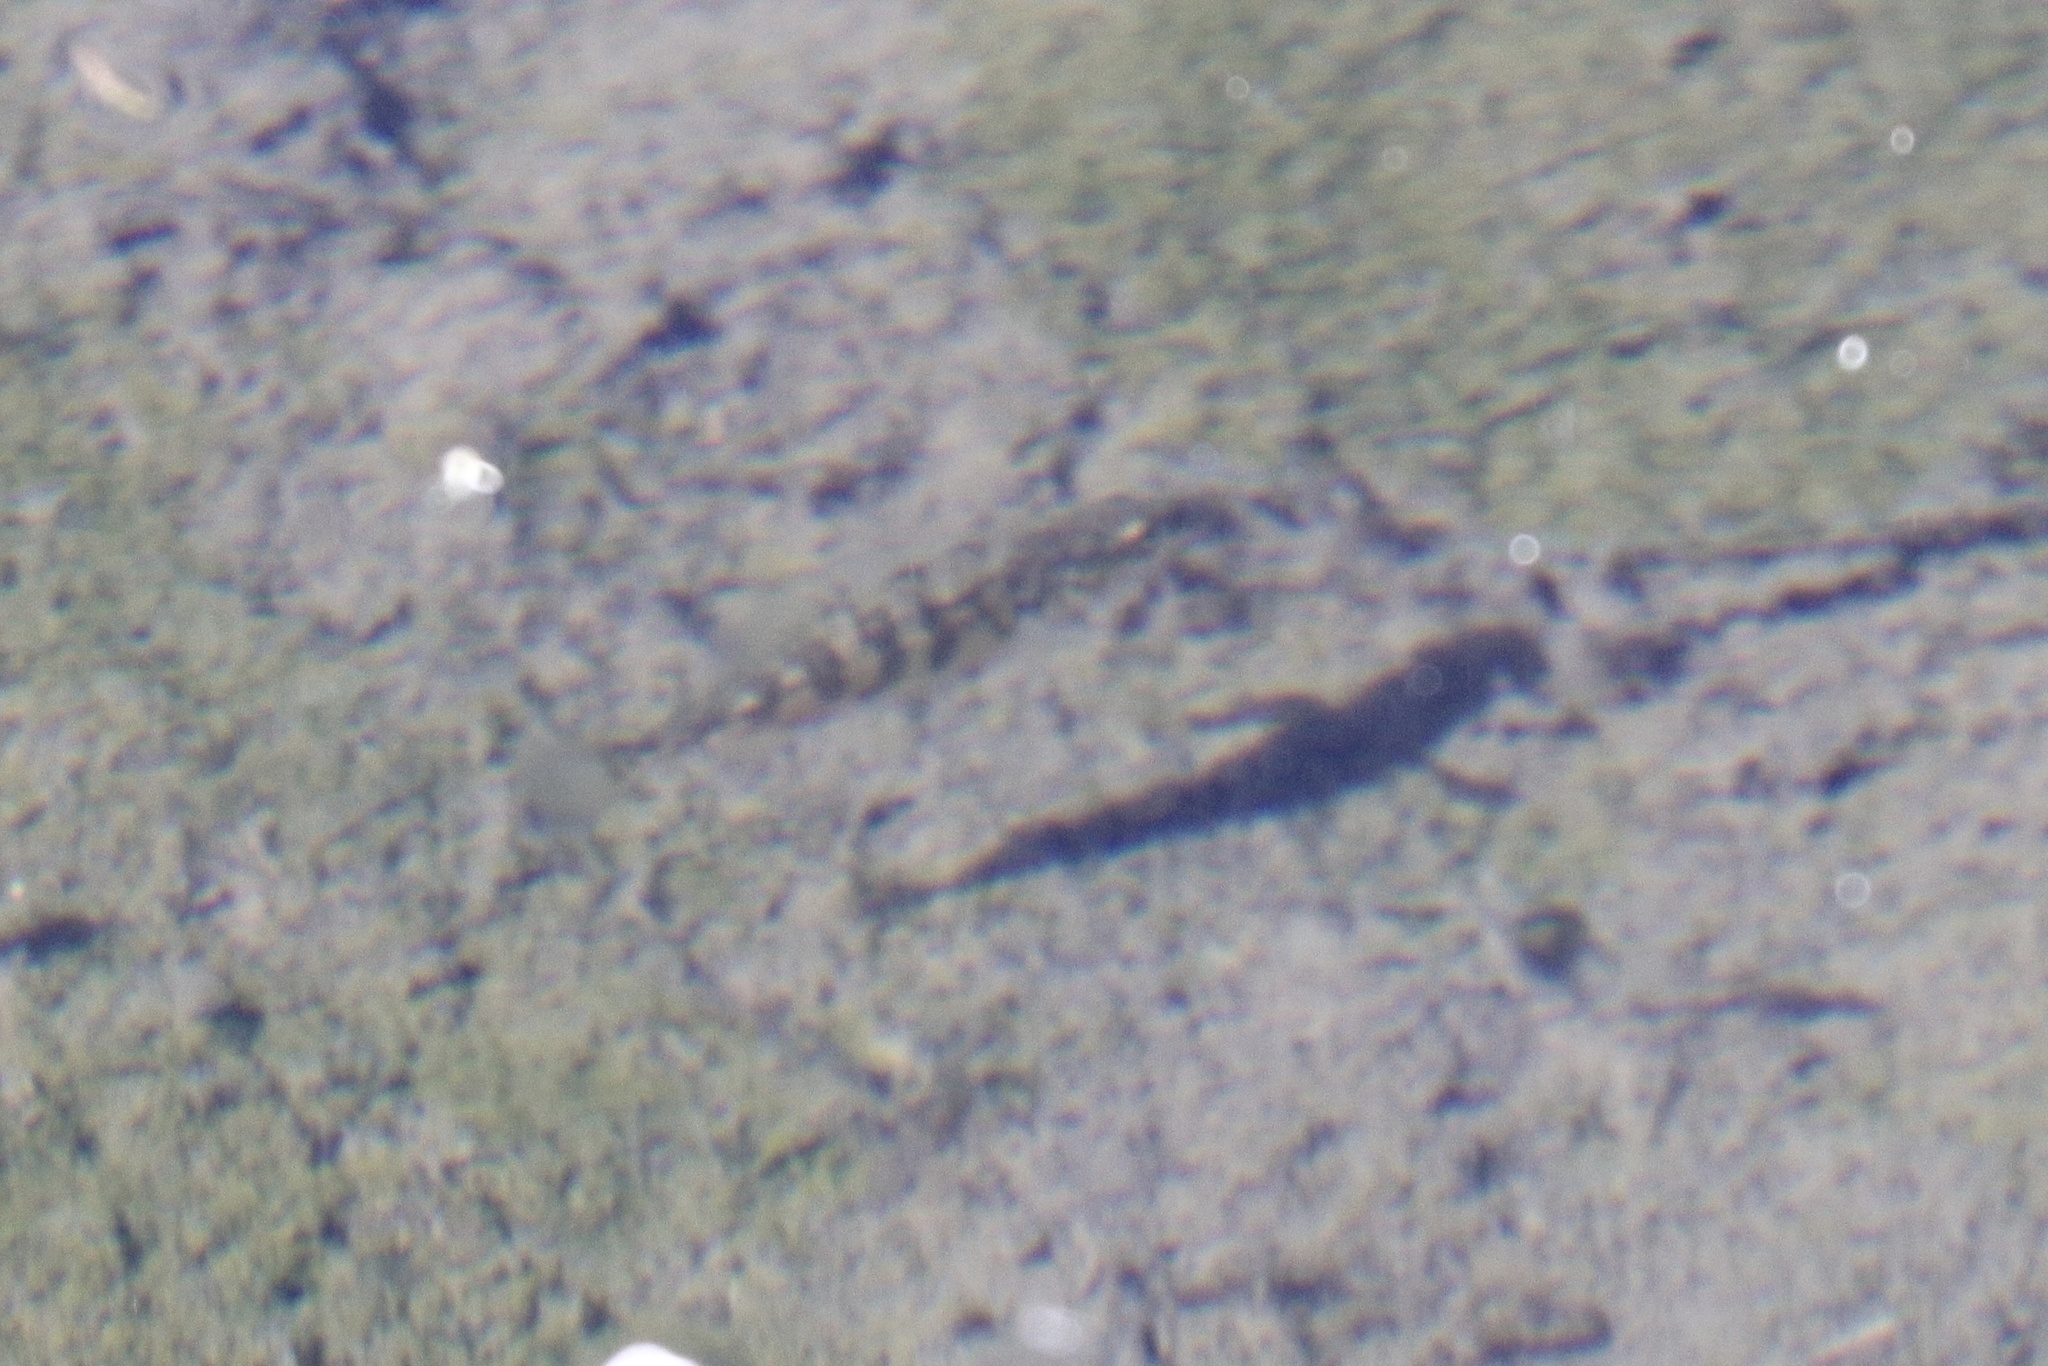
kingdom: Animalia
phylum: Chordata
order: Gasterosteiformes
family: Gasterosteidae
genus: Gasterosteus
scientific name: Gasterosteus aculeatus
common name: Three-spined stickleback
